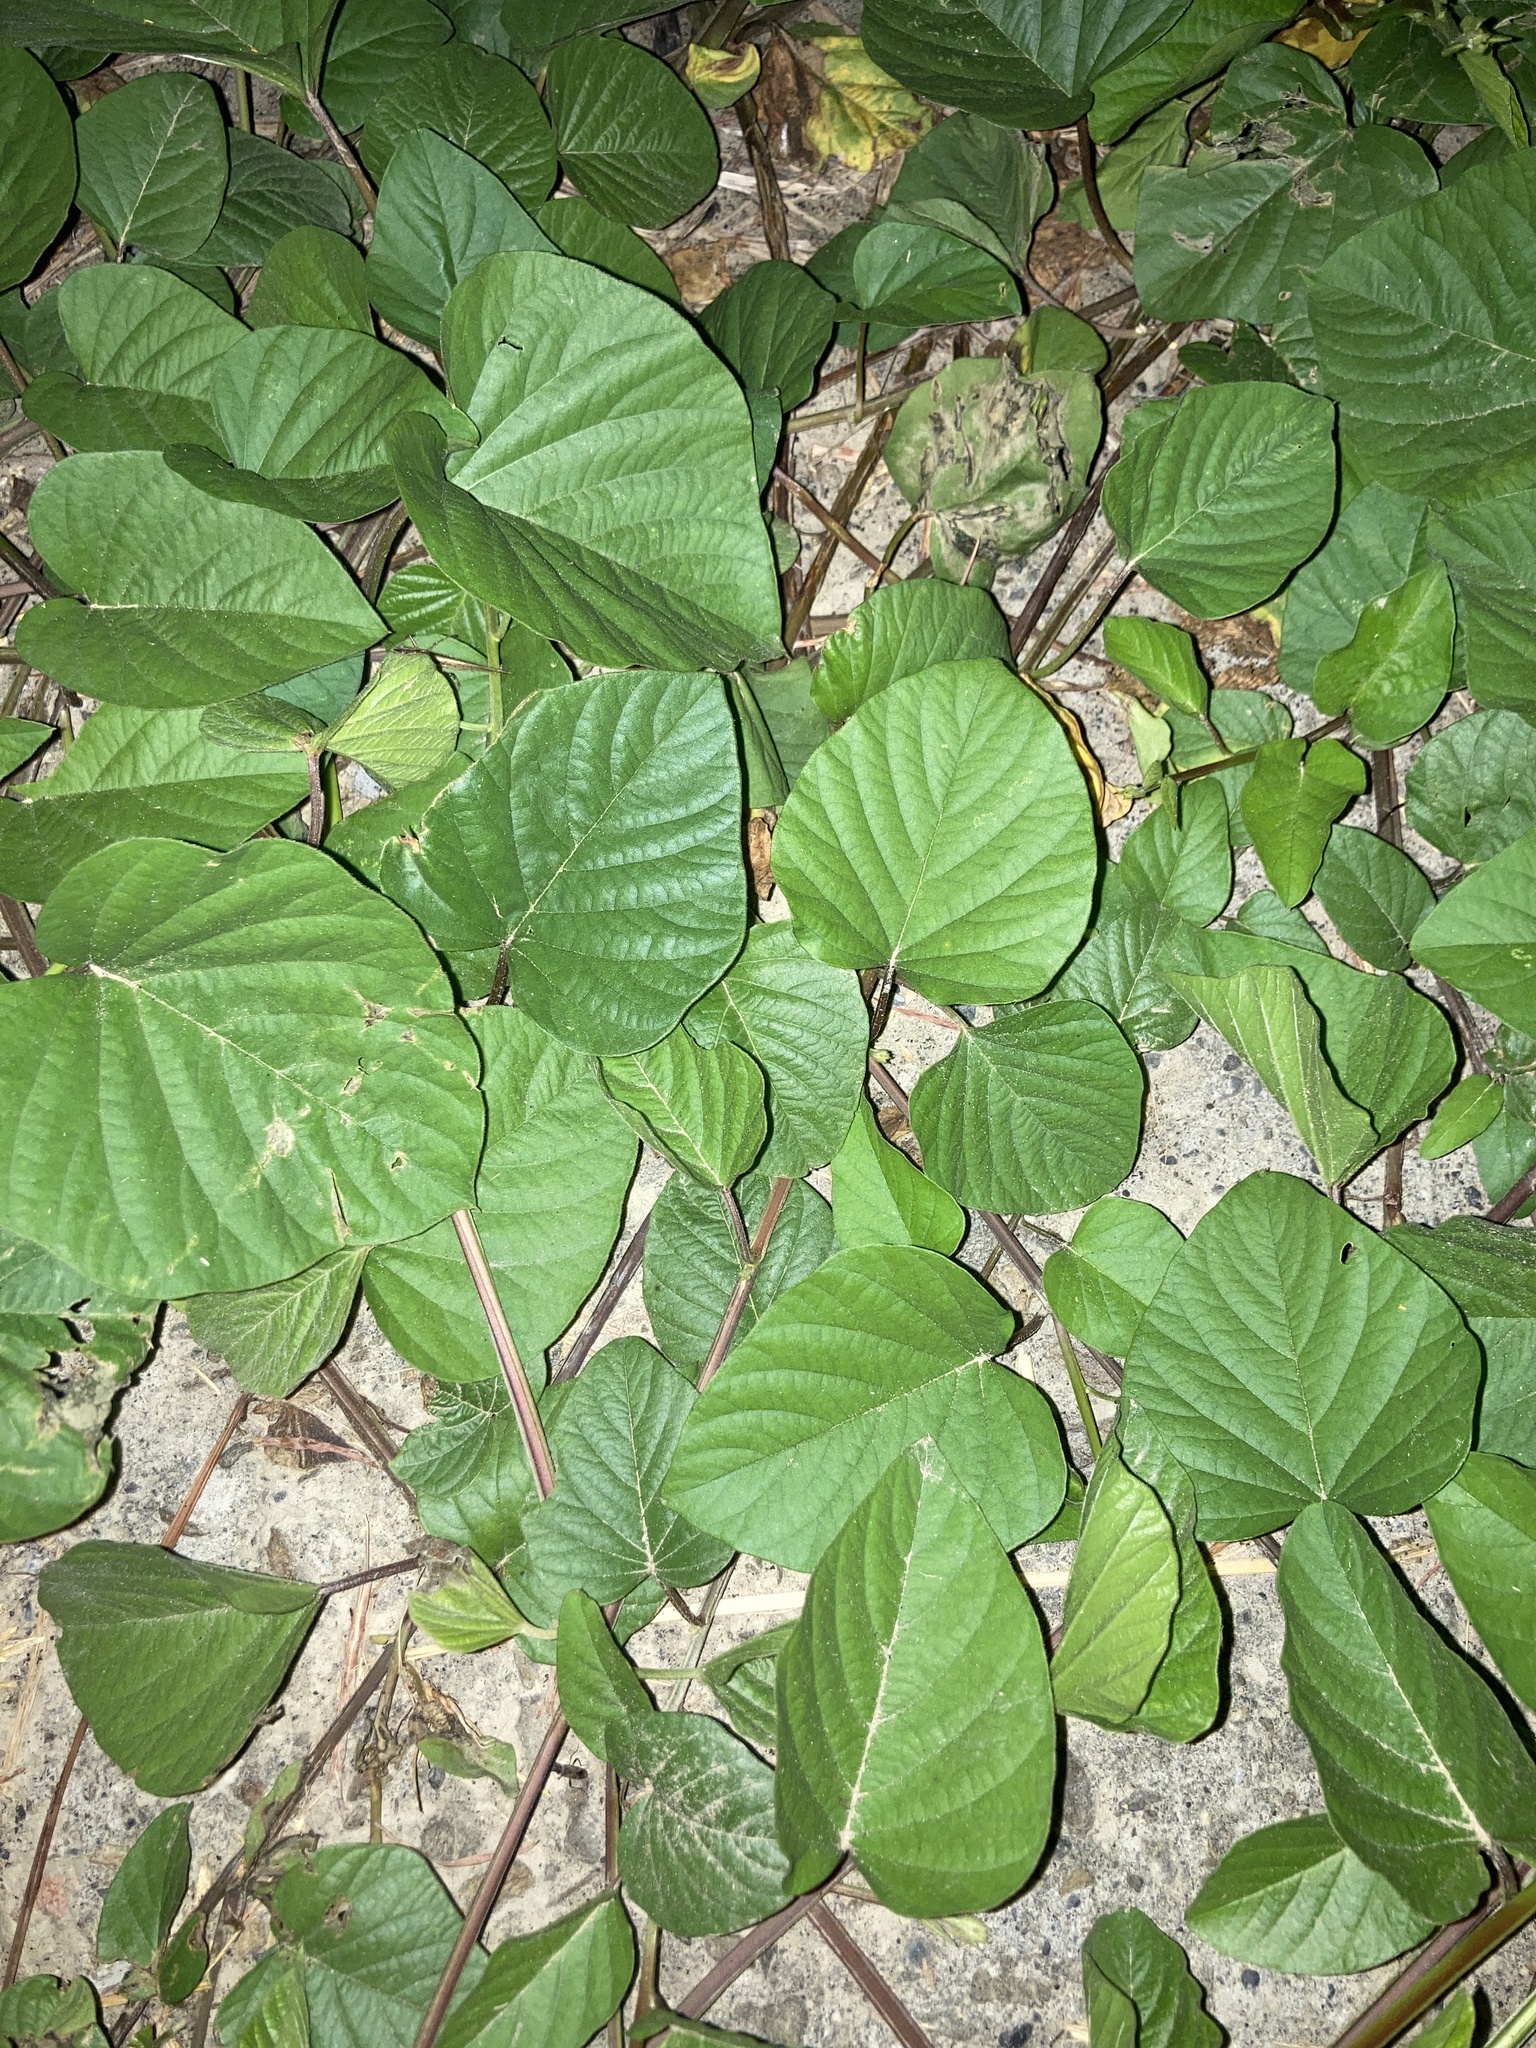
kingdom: Plantae
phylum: Tracheophyta
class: Magnoliopsida
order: Solanales
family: Convolvulaceae
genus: Operculina
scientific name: Operculina turpethum
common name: Transparent wood-rose
